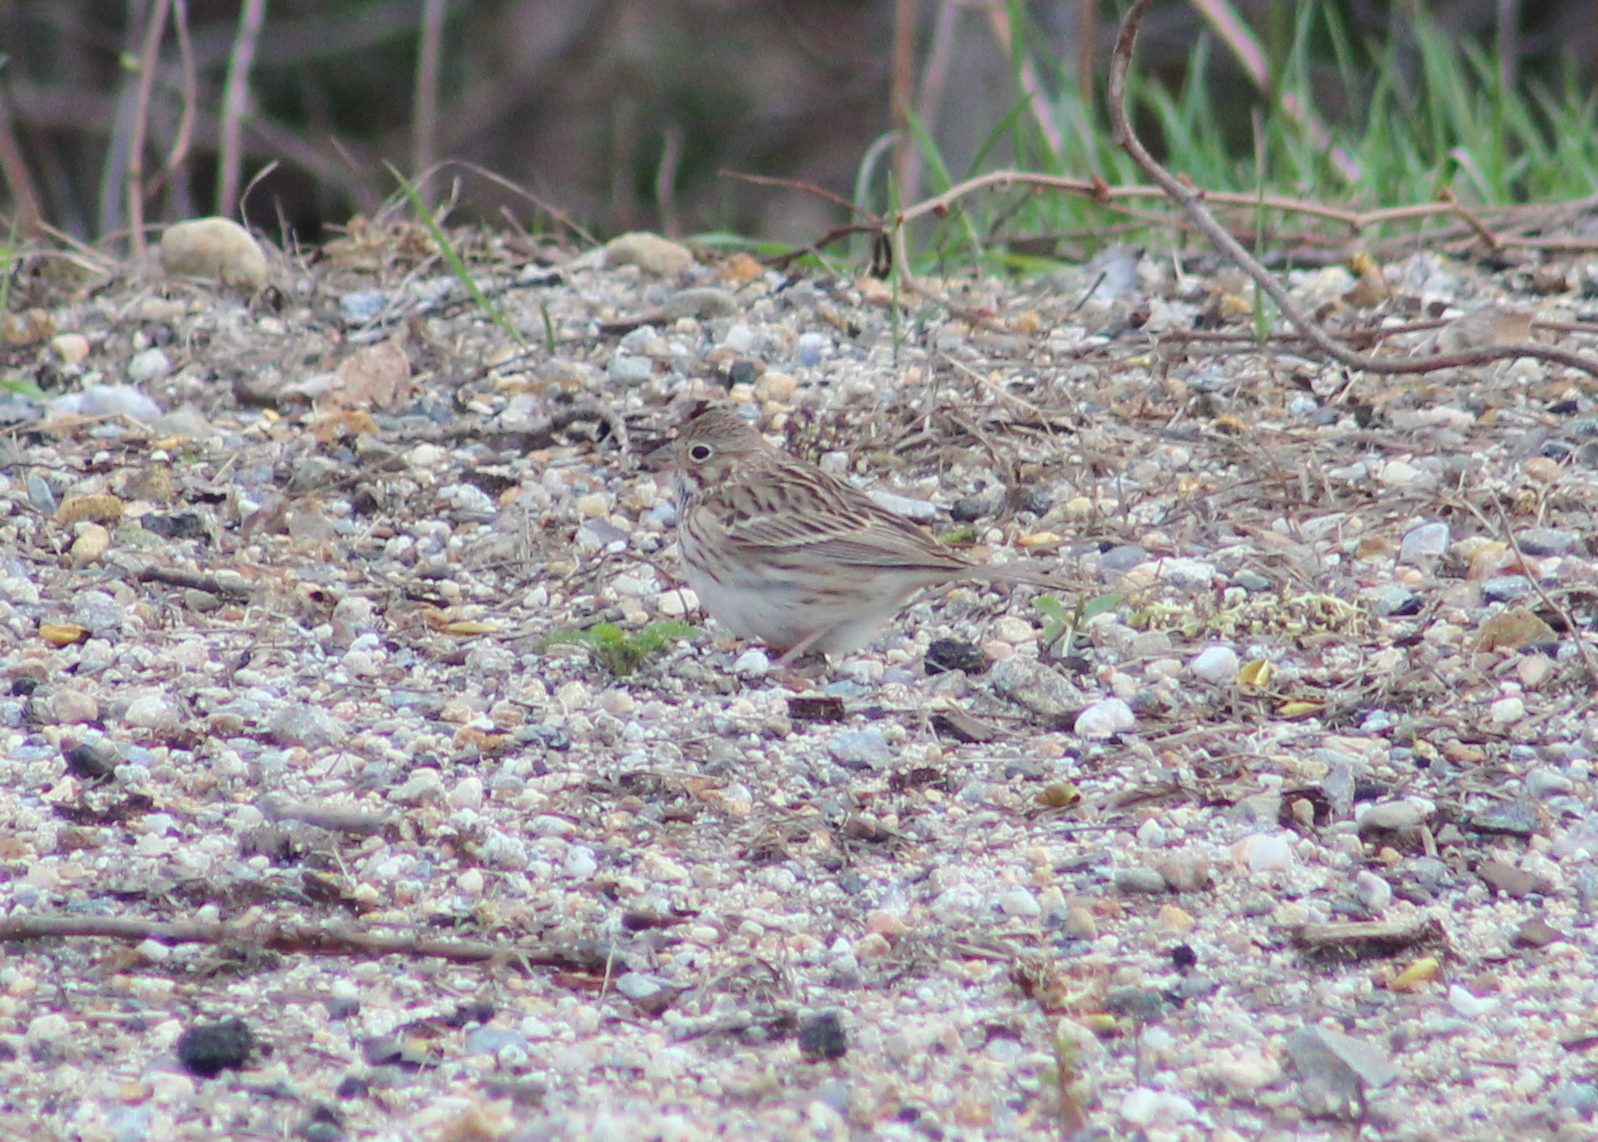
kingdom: Animalia
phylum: Chordata
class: Aves
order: Passeriformes
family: Passerellidae
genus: Pooecetes
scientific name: Pooecetes gramineus
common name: Vesper sparrow
